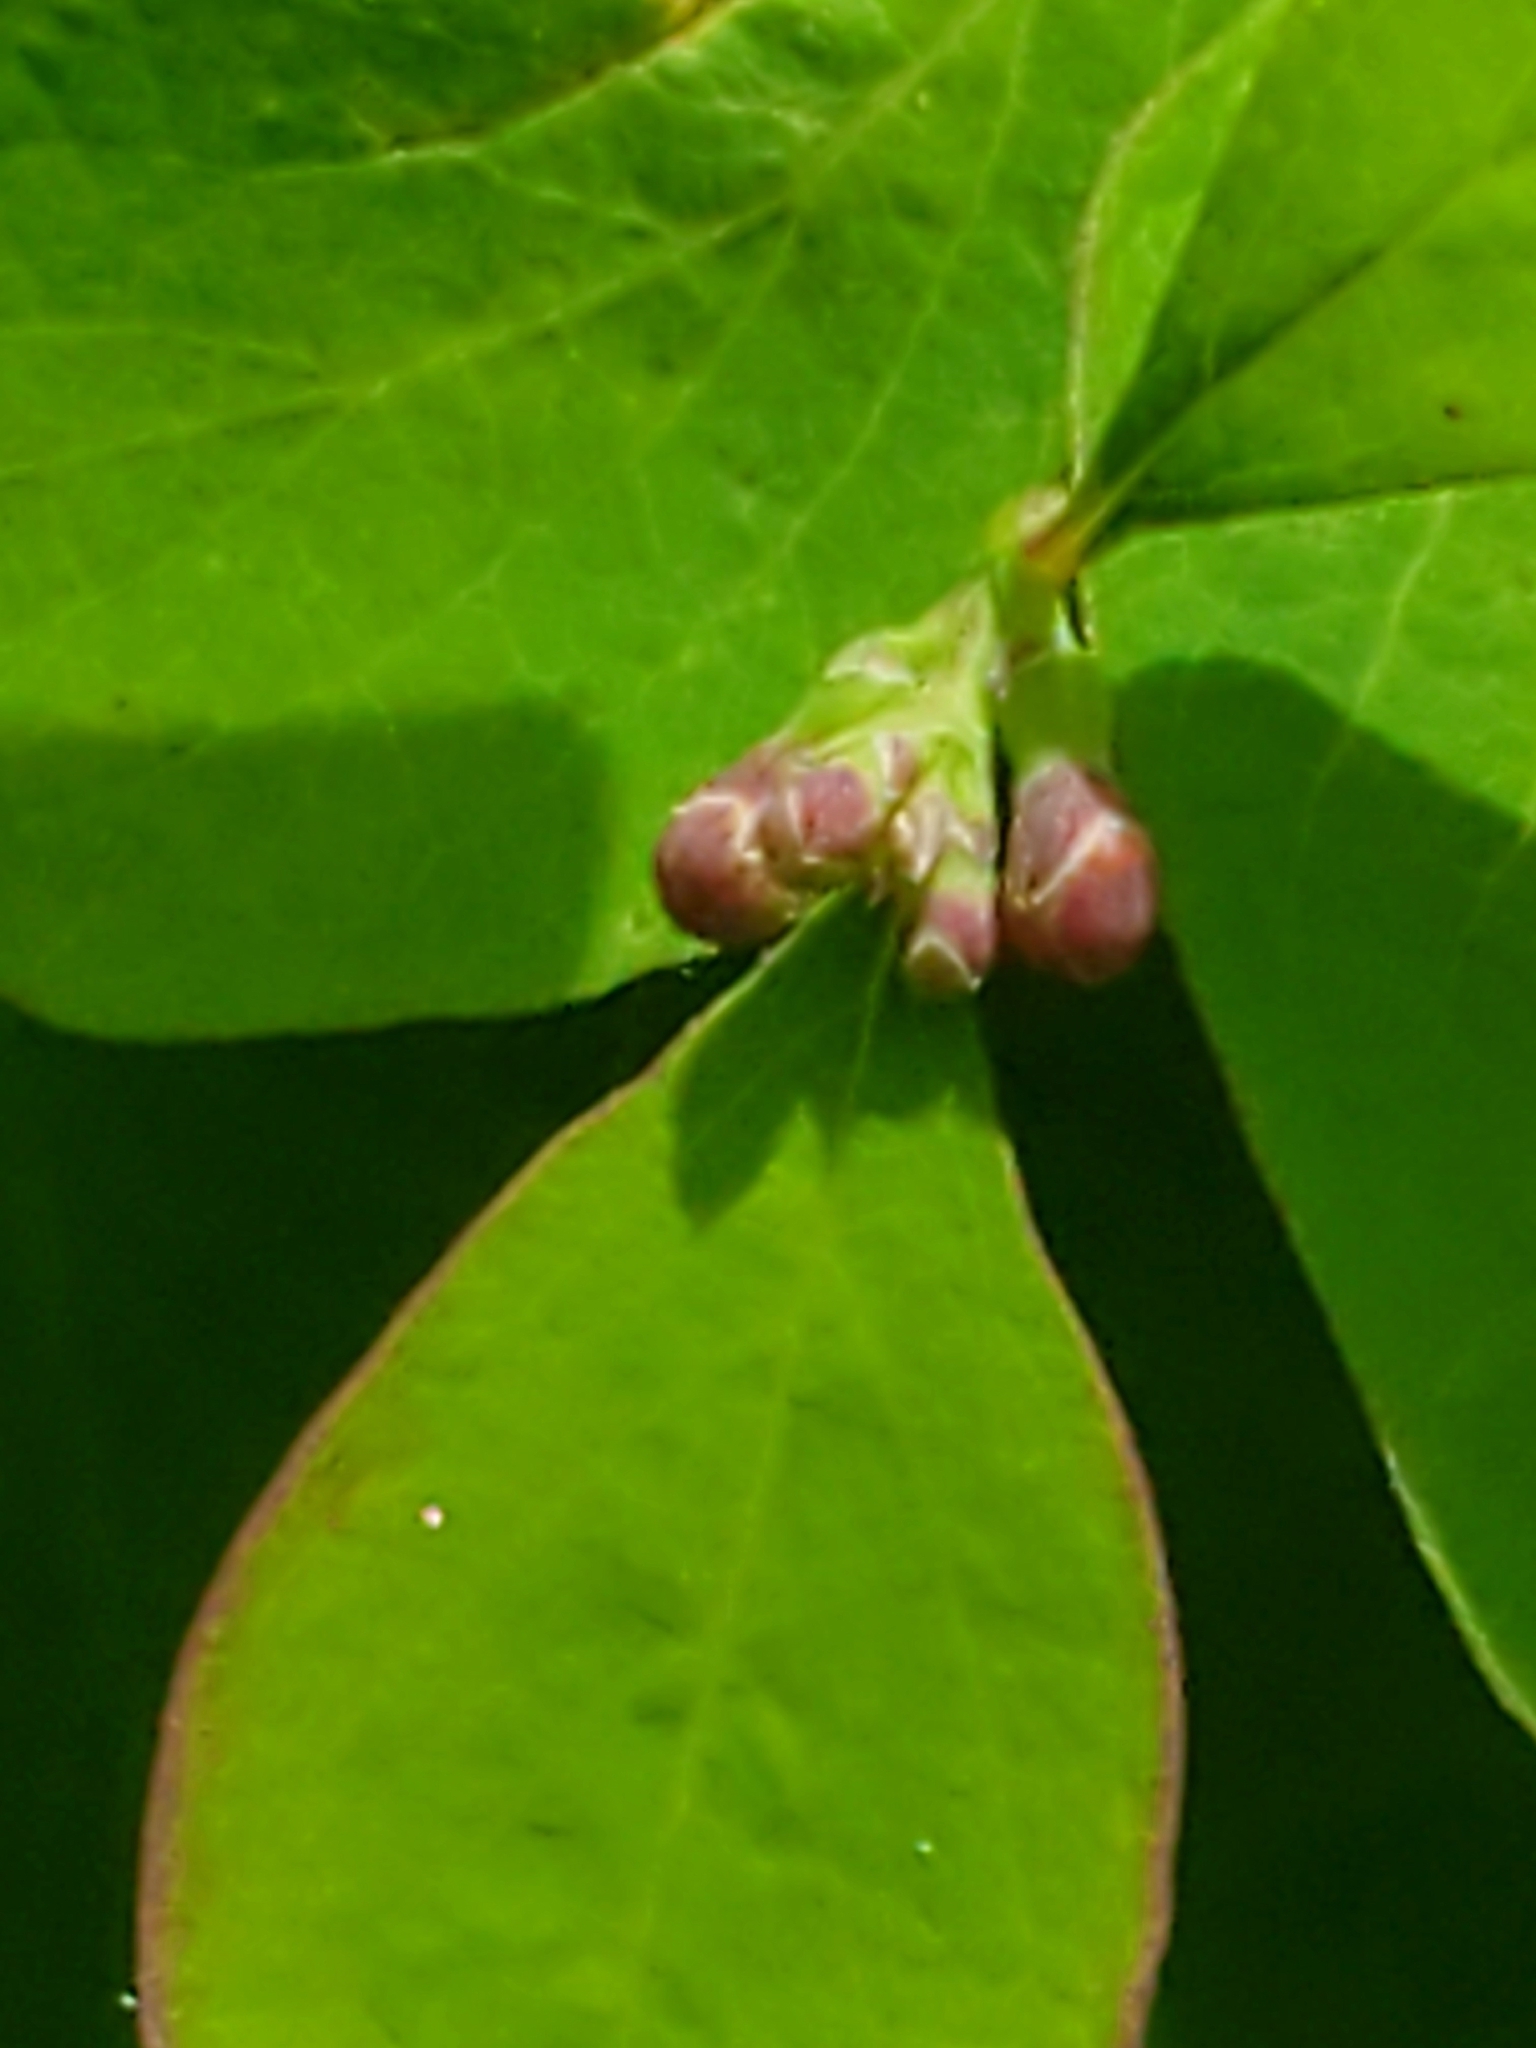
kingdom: Plantae
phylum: Tracheophyta
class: Magnoliopsida
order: Dipsacales
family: Caprifoliaceae
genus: Symphoricarpos
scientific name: Symphoricarpos albus
